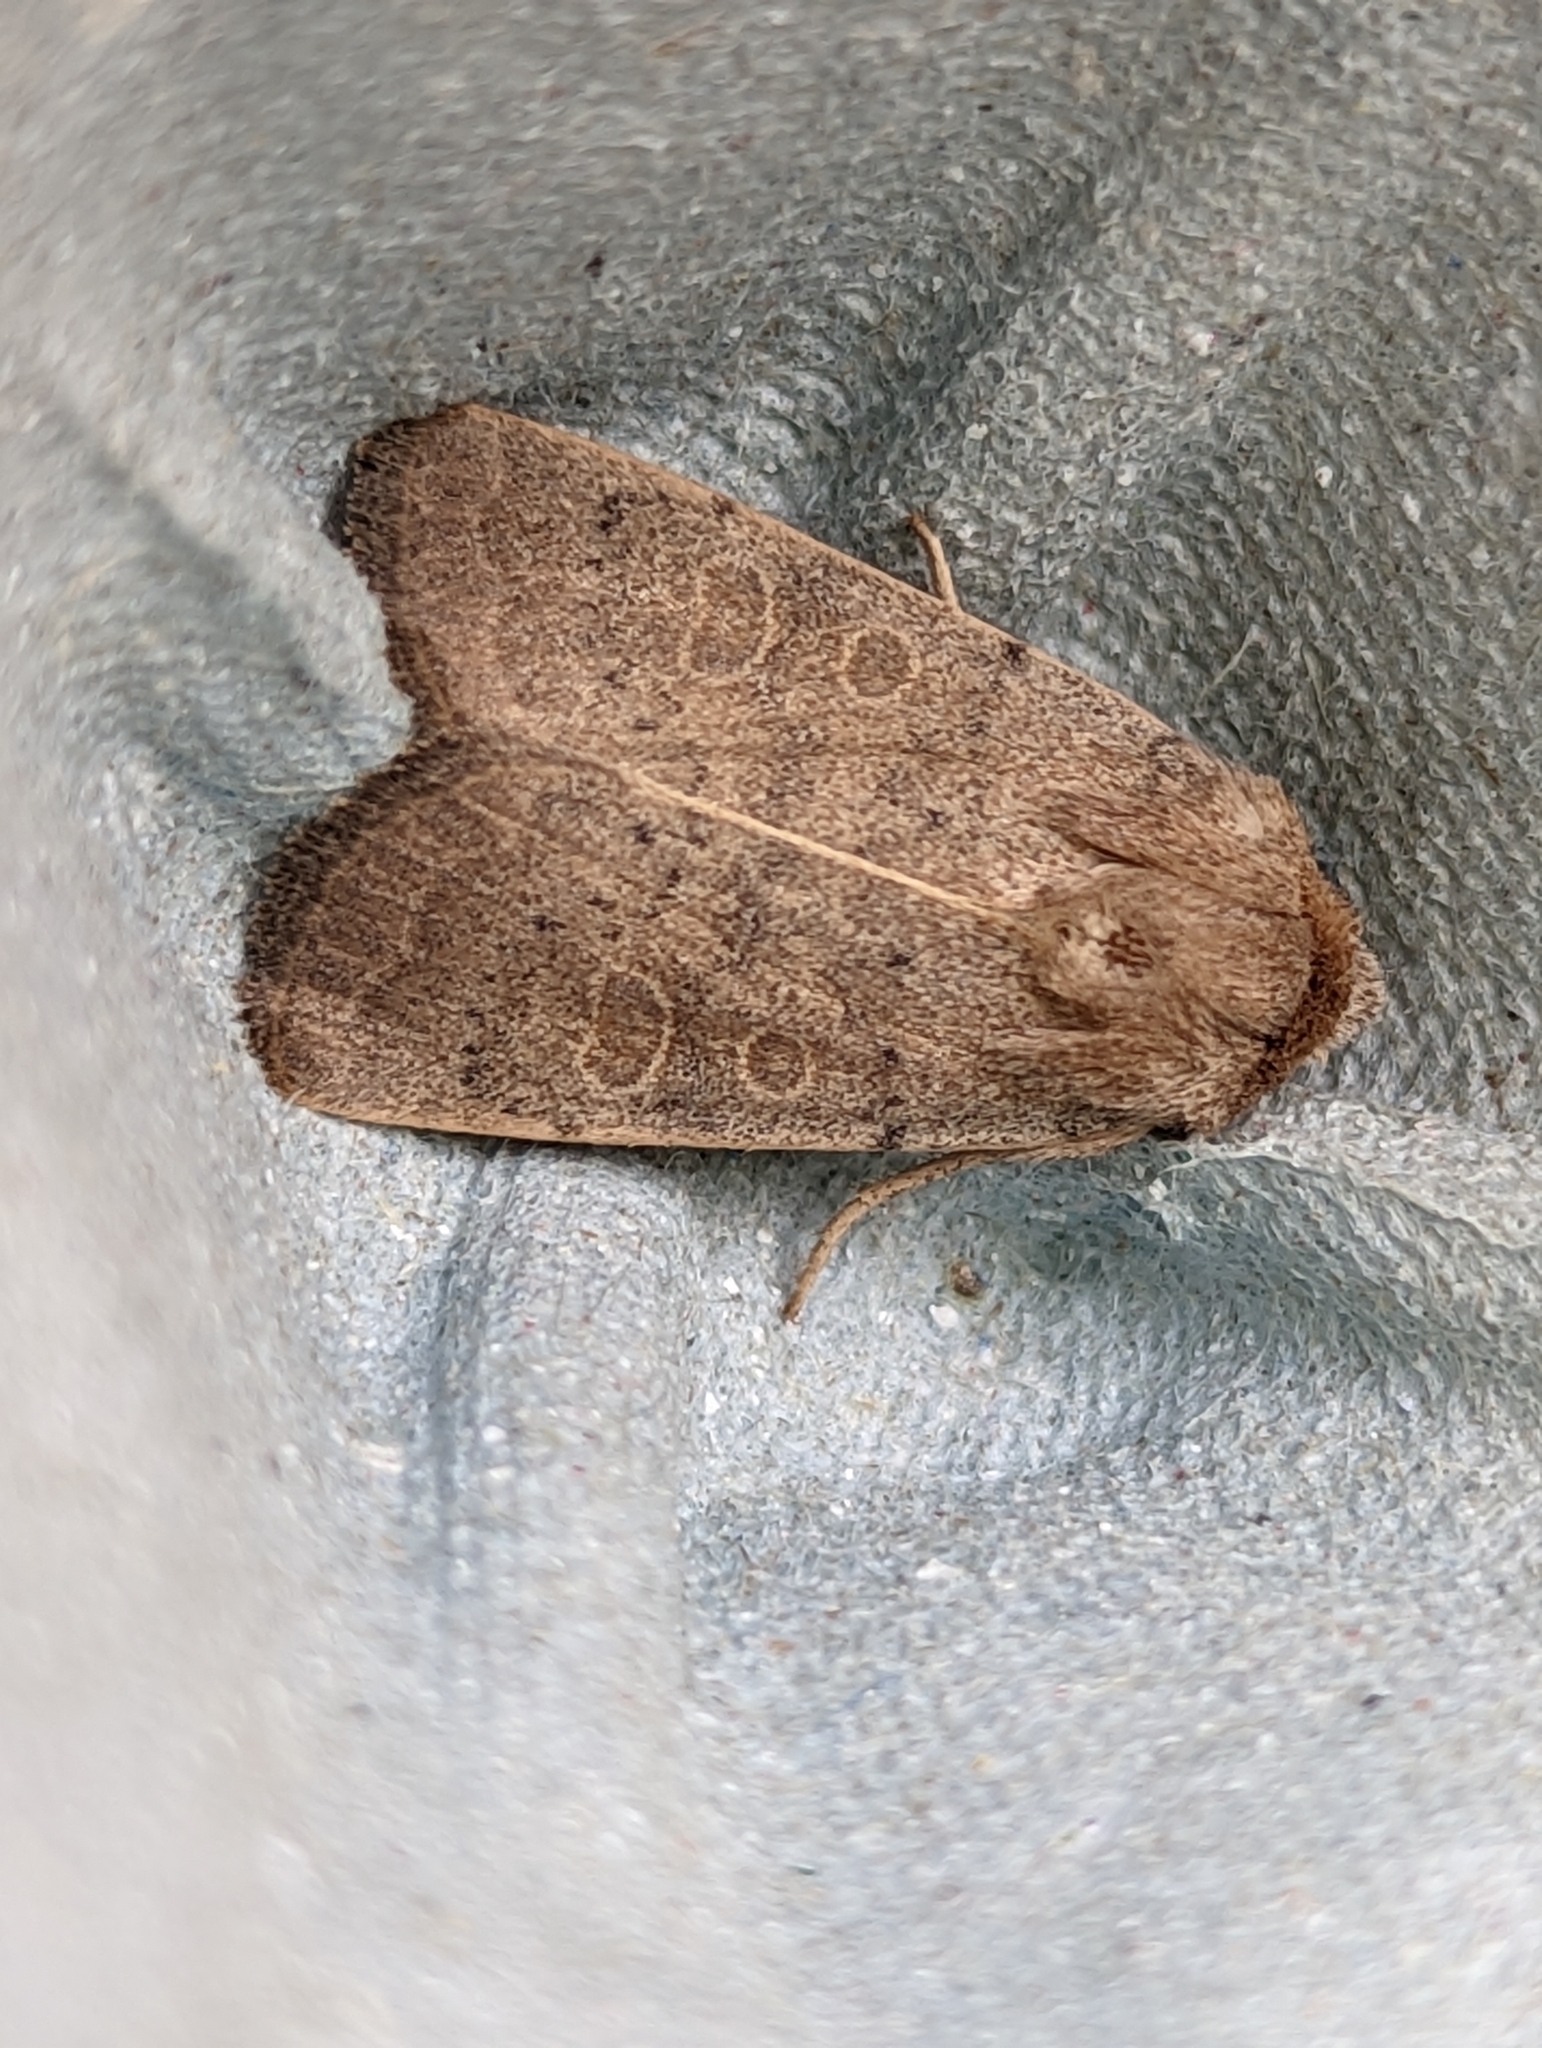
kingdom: Animalia
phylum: Arthropoda
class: Insecta
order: Lepidoptera
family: Noctuidae
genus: Hoplodrina
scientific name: Hoplodrina ambigua
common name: Vine's rustic
